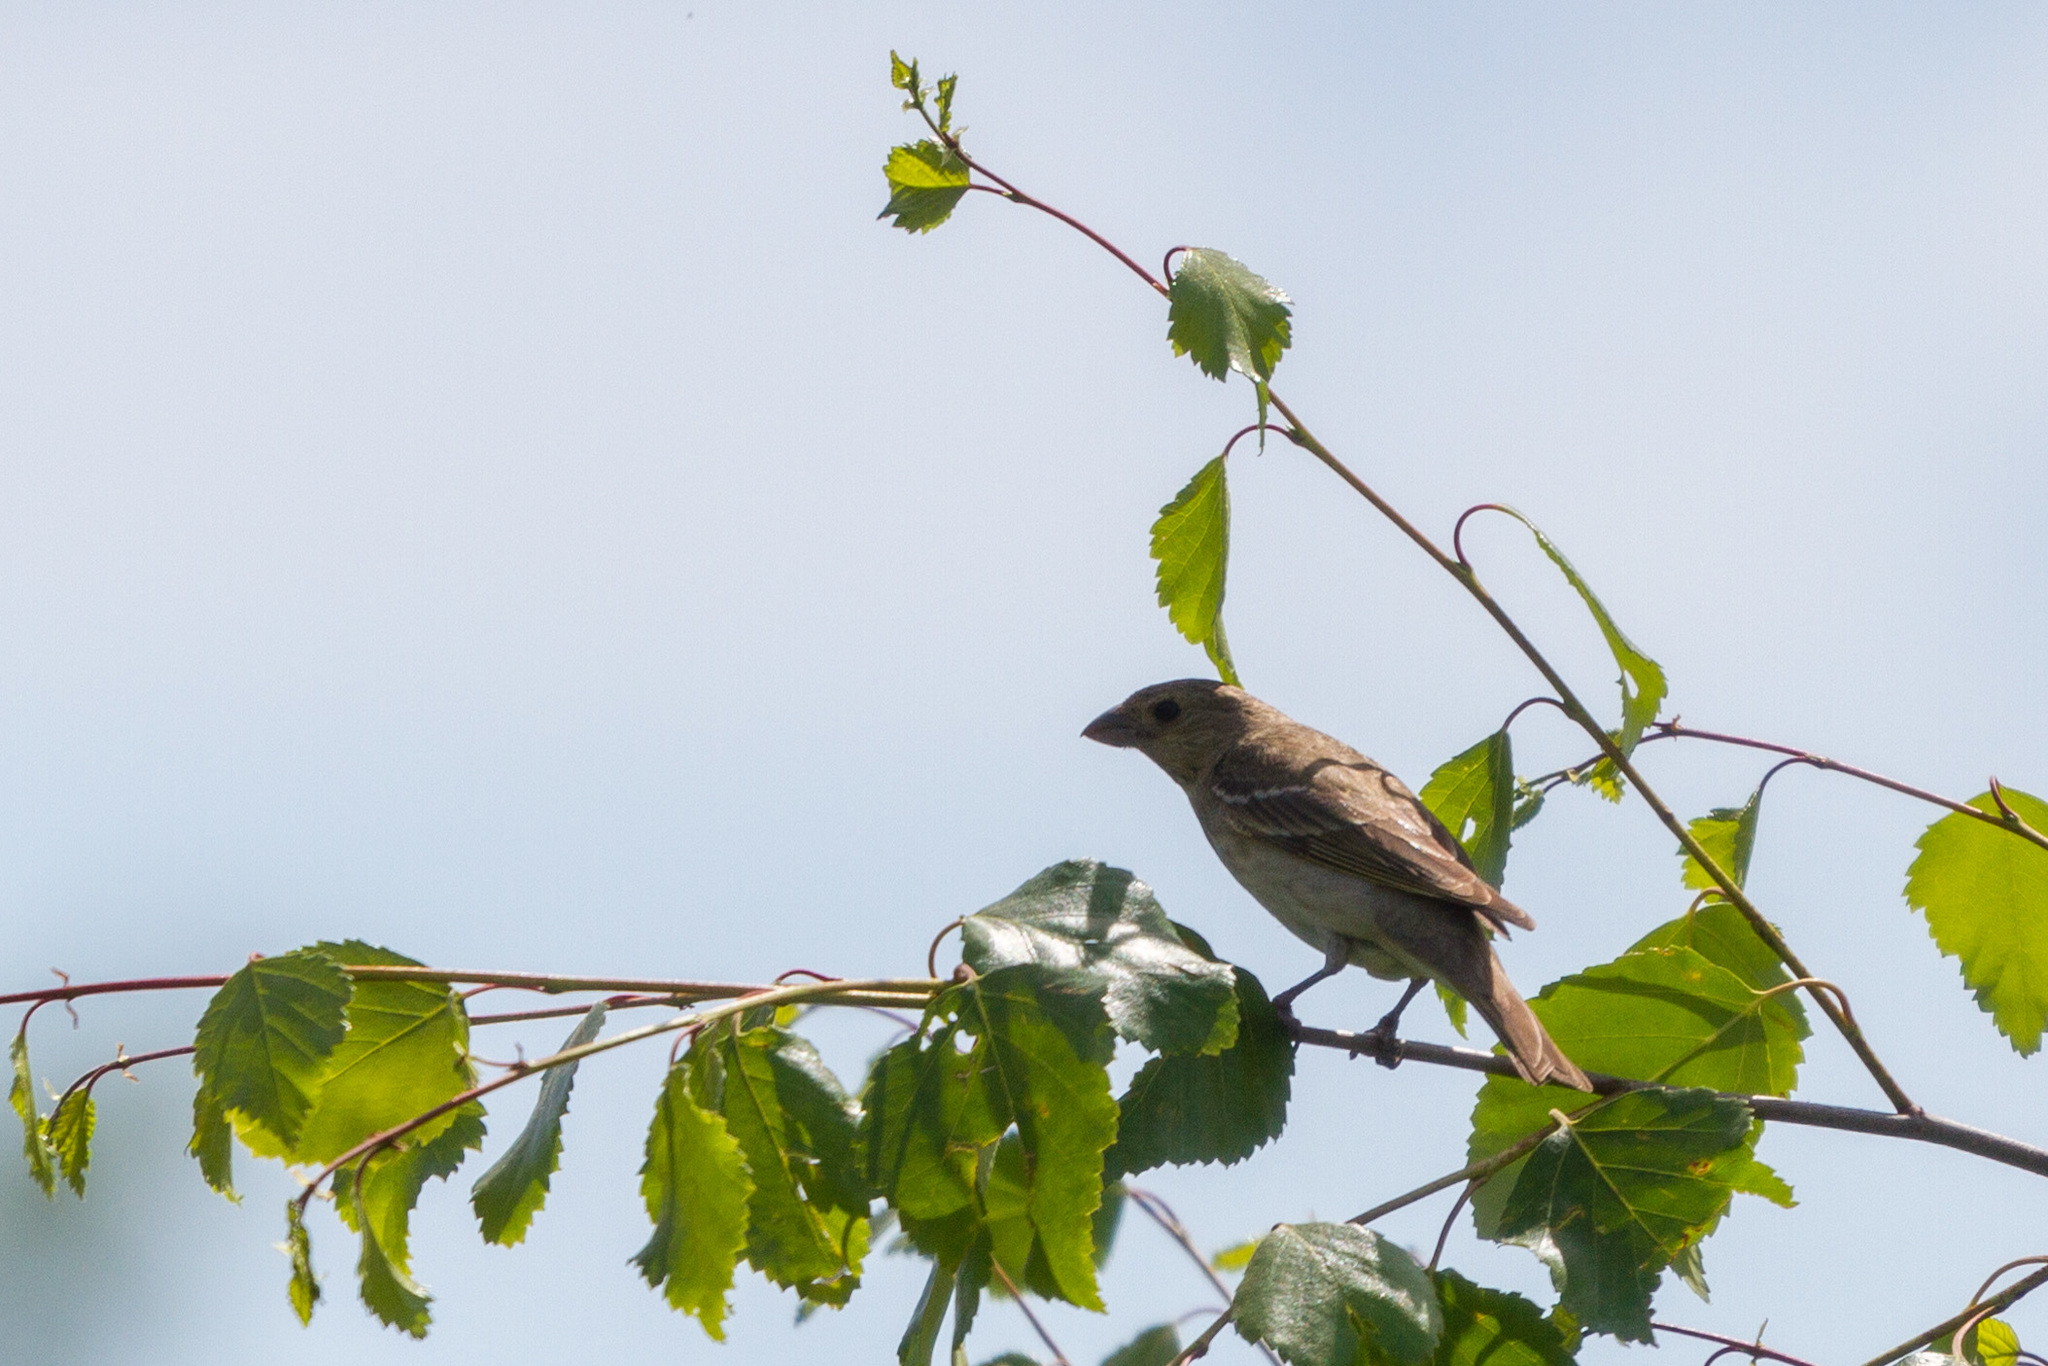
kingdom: Animalia
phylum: Chordata
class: Aves
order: Passeriformes
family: Fringillidae
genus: Carpodacus
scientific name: Carpodacus erythrinus
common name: Common rosefinch
